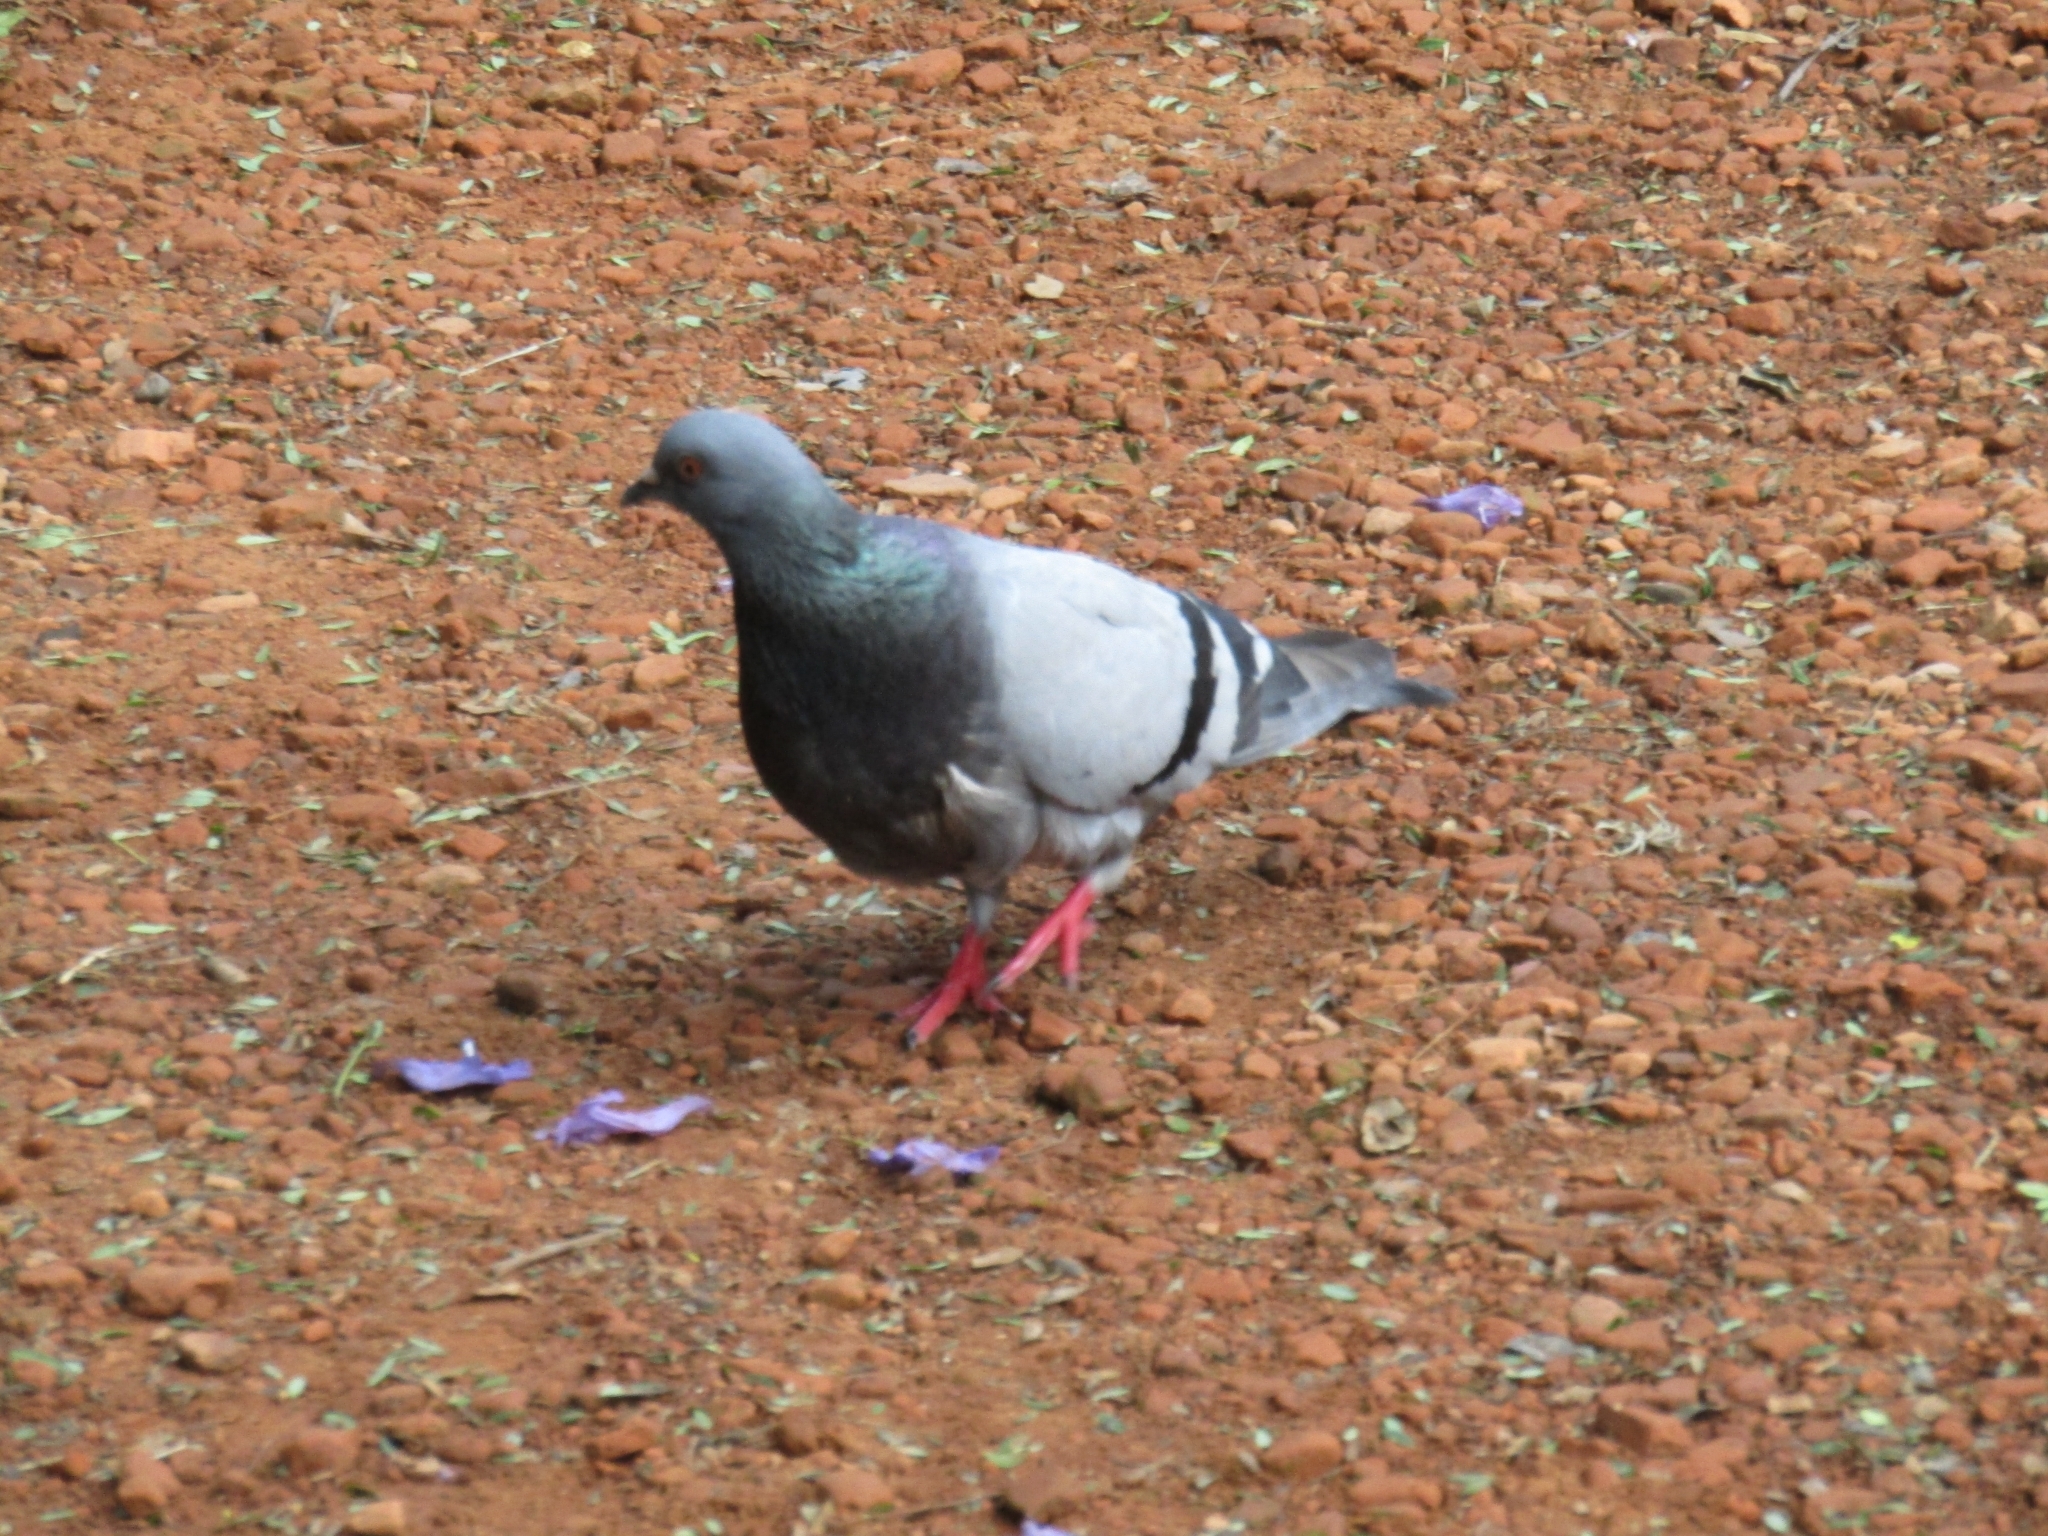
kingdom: Animalia
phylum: Chordata
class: Aves
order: Columbiformes
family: Columbidae
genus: Columba
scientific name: Columba livia
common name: Rock pigeon
